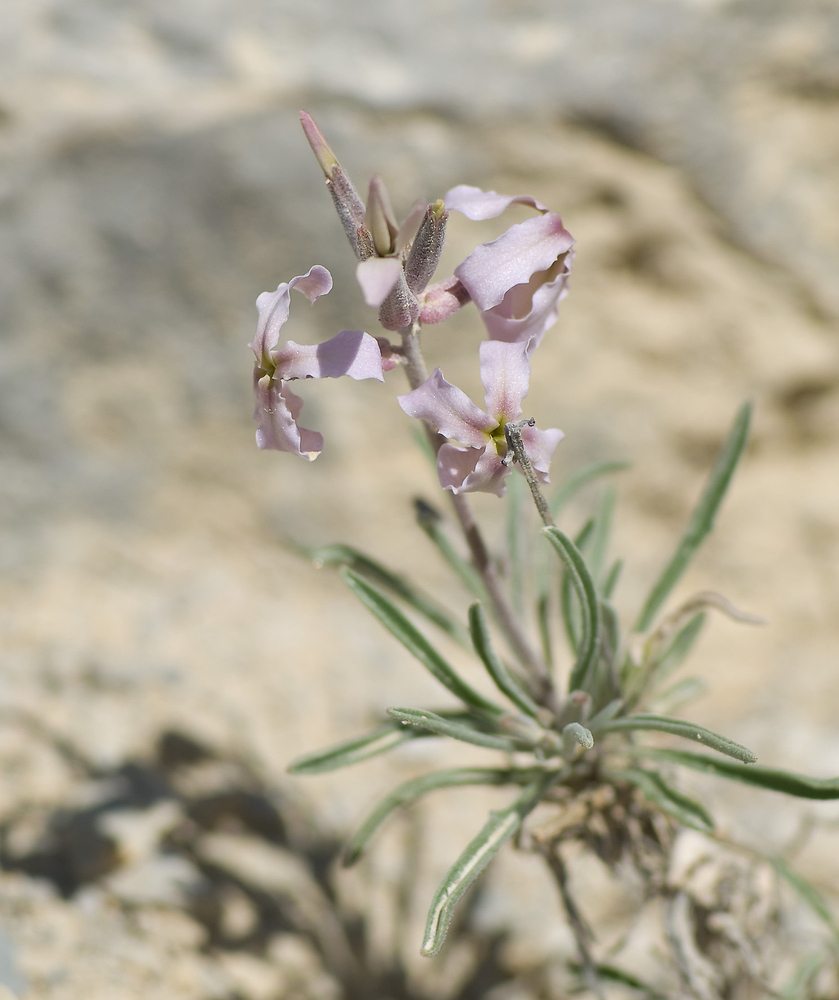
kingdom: Plantae
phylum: Tracheophyta
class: Magnoliopsida
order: Brassicales
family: Brassicaceae
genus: Matthiola
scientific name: Matthiola fruticulosa
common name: Sad stock
